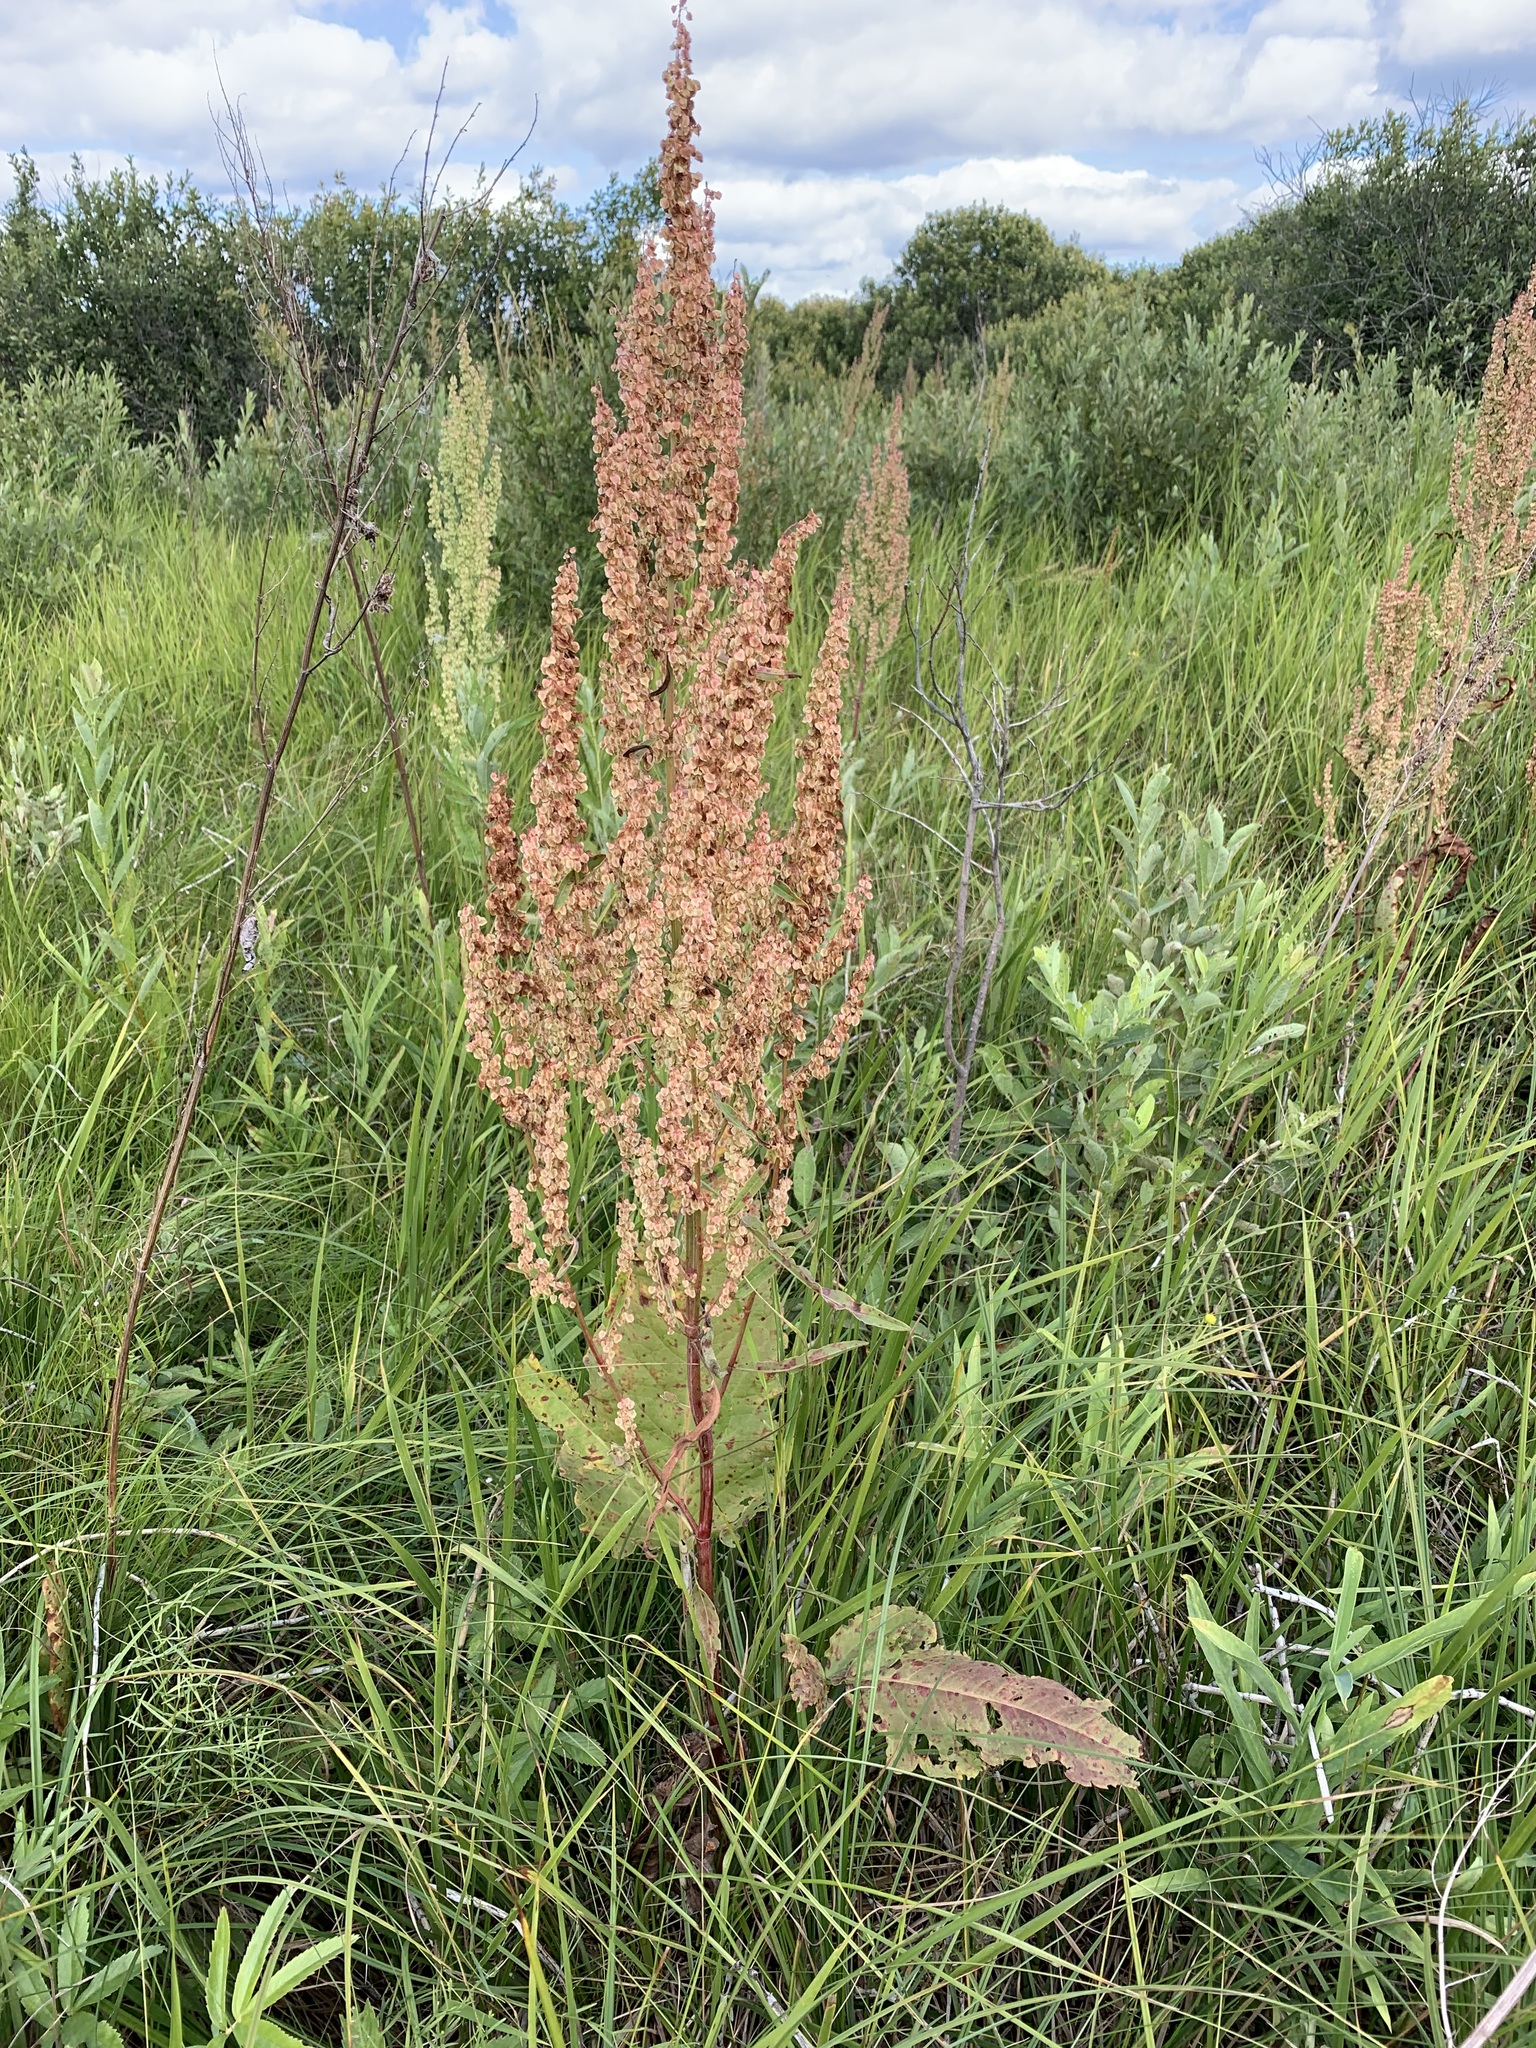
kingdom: Plantae
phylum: Tracheophyta
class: Magnoliopsida
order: Caryophyllales
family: Polygonaceae
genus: Rumex
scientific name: Rumex aquaticus
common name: Scottish dock
